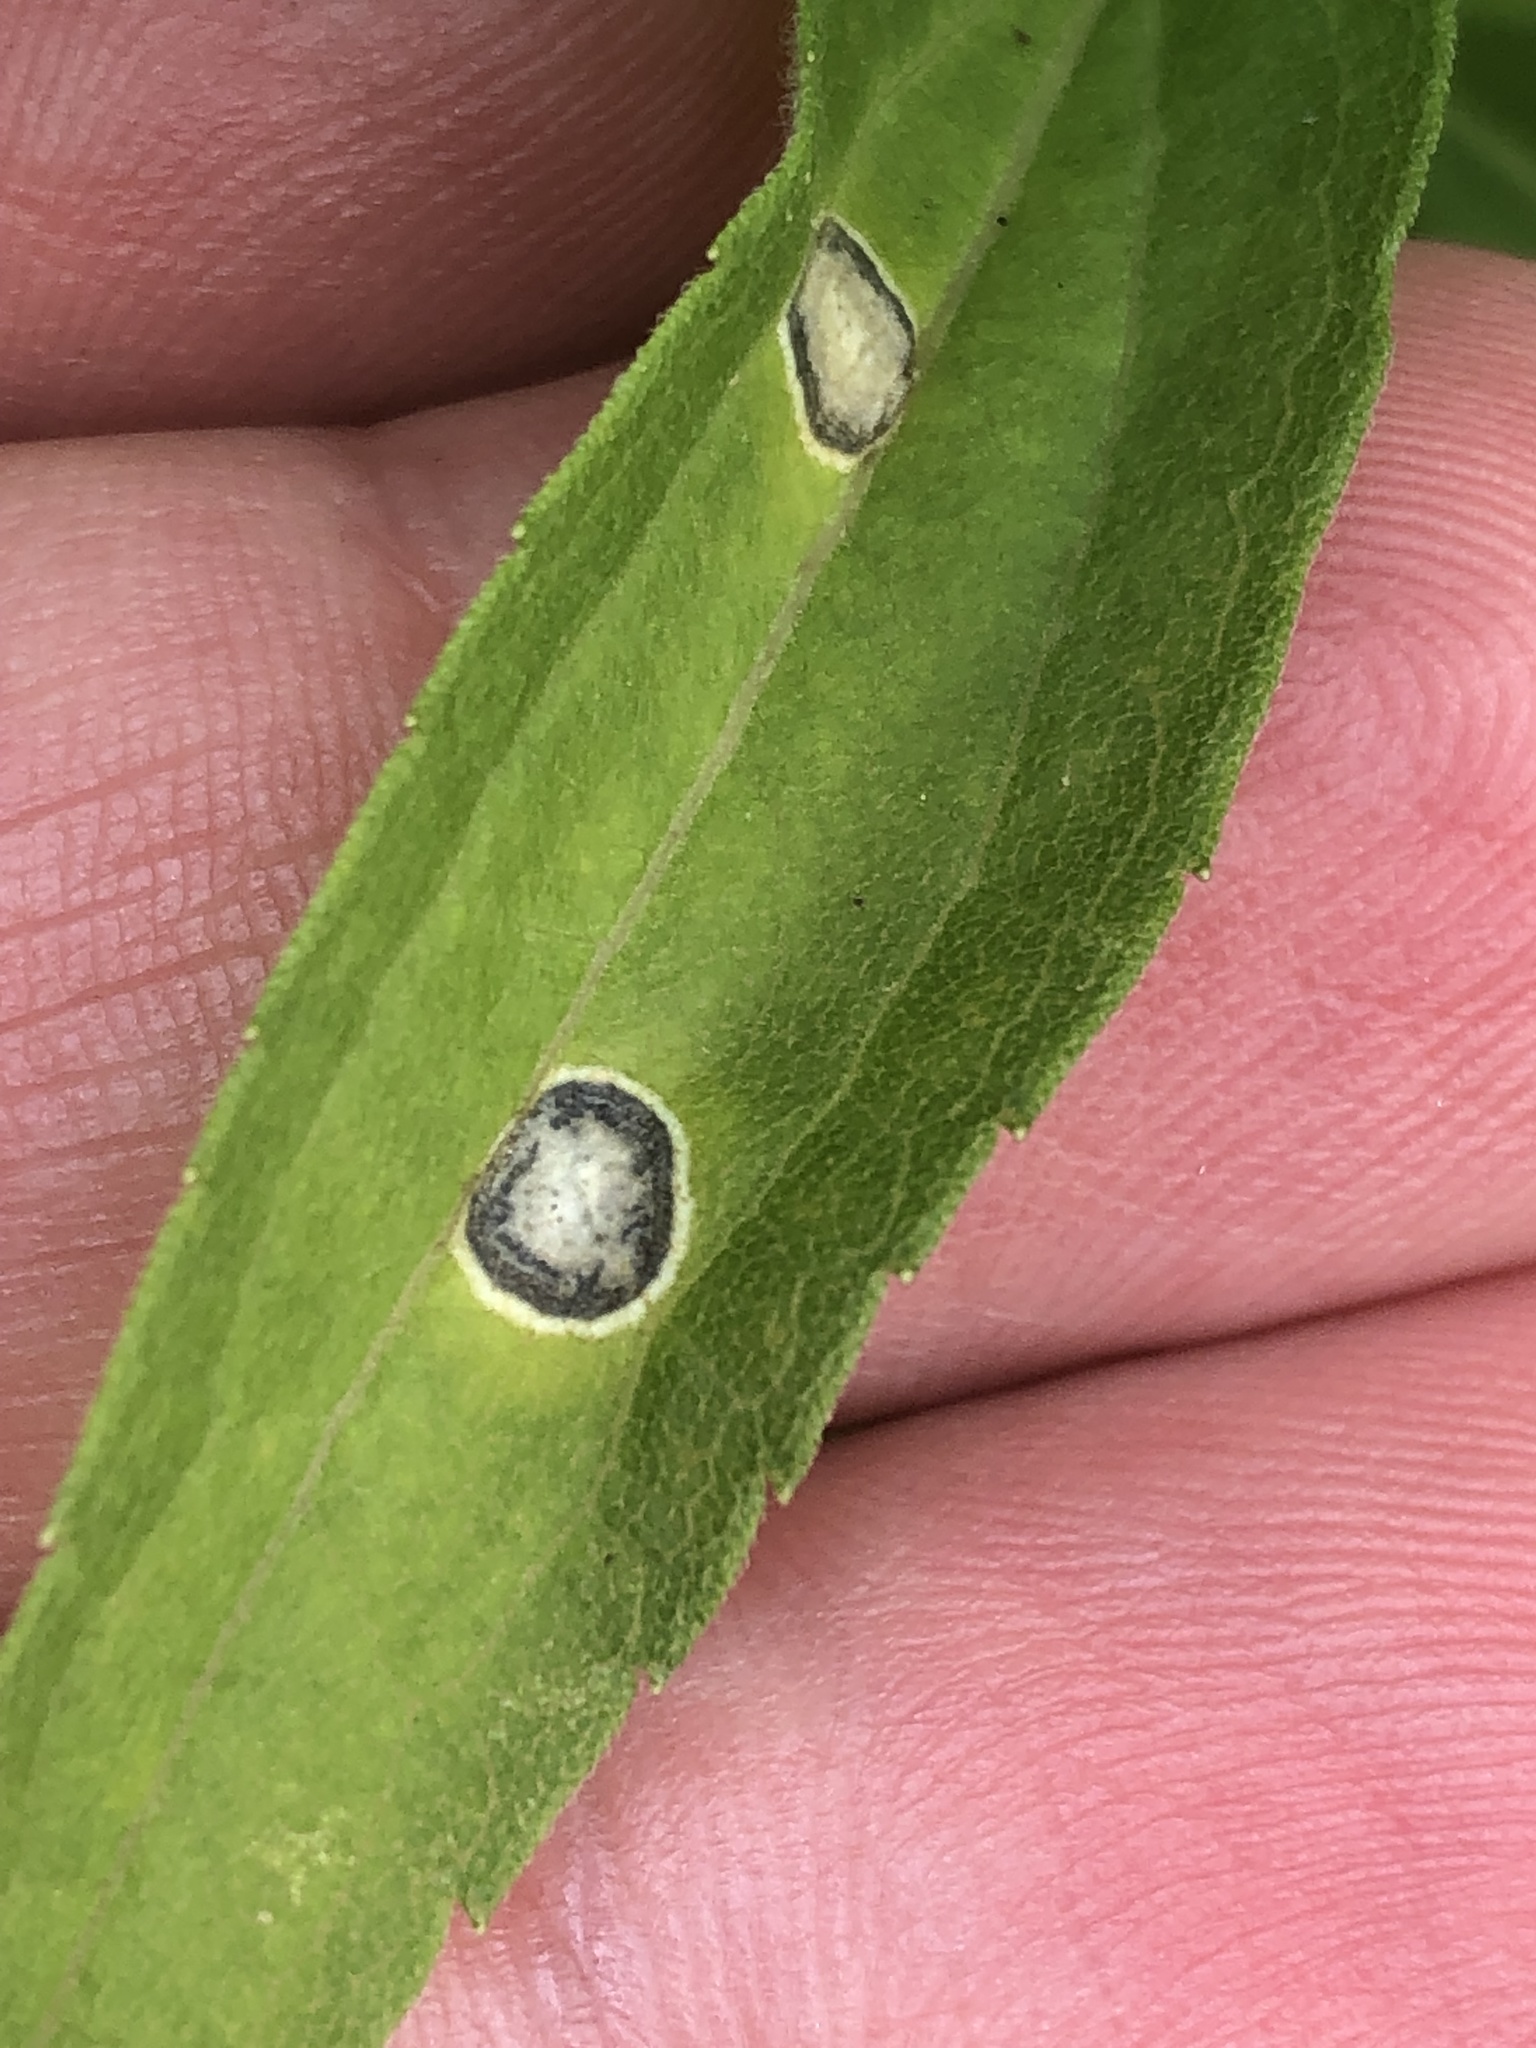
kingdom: Animalia
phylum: Arthropoda
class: Insecta
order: Diptera
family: Cecidomyiidae
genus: Asteromyia
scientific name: Asteromyia carbonifera
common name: Carbonifera goldenrod gall midge
